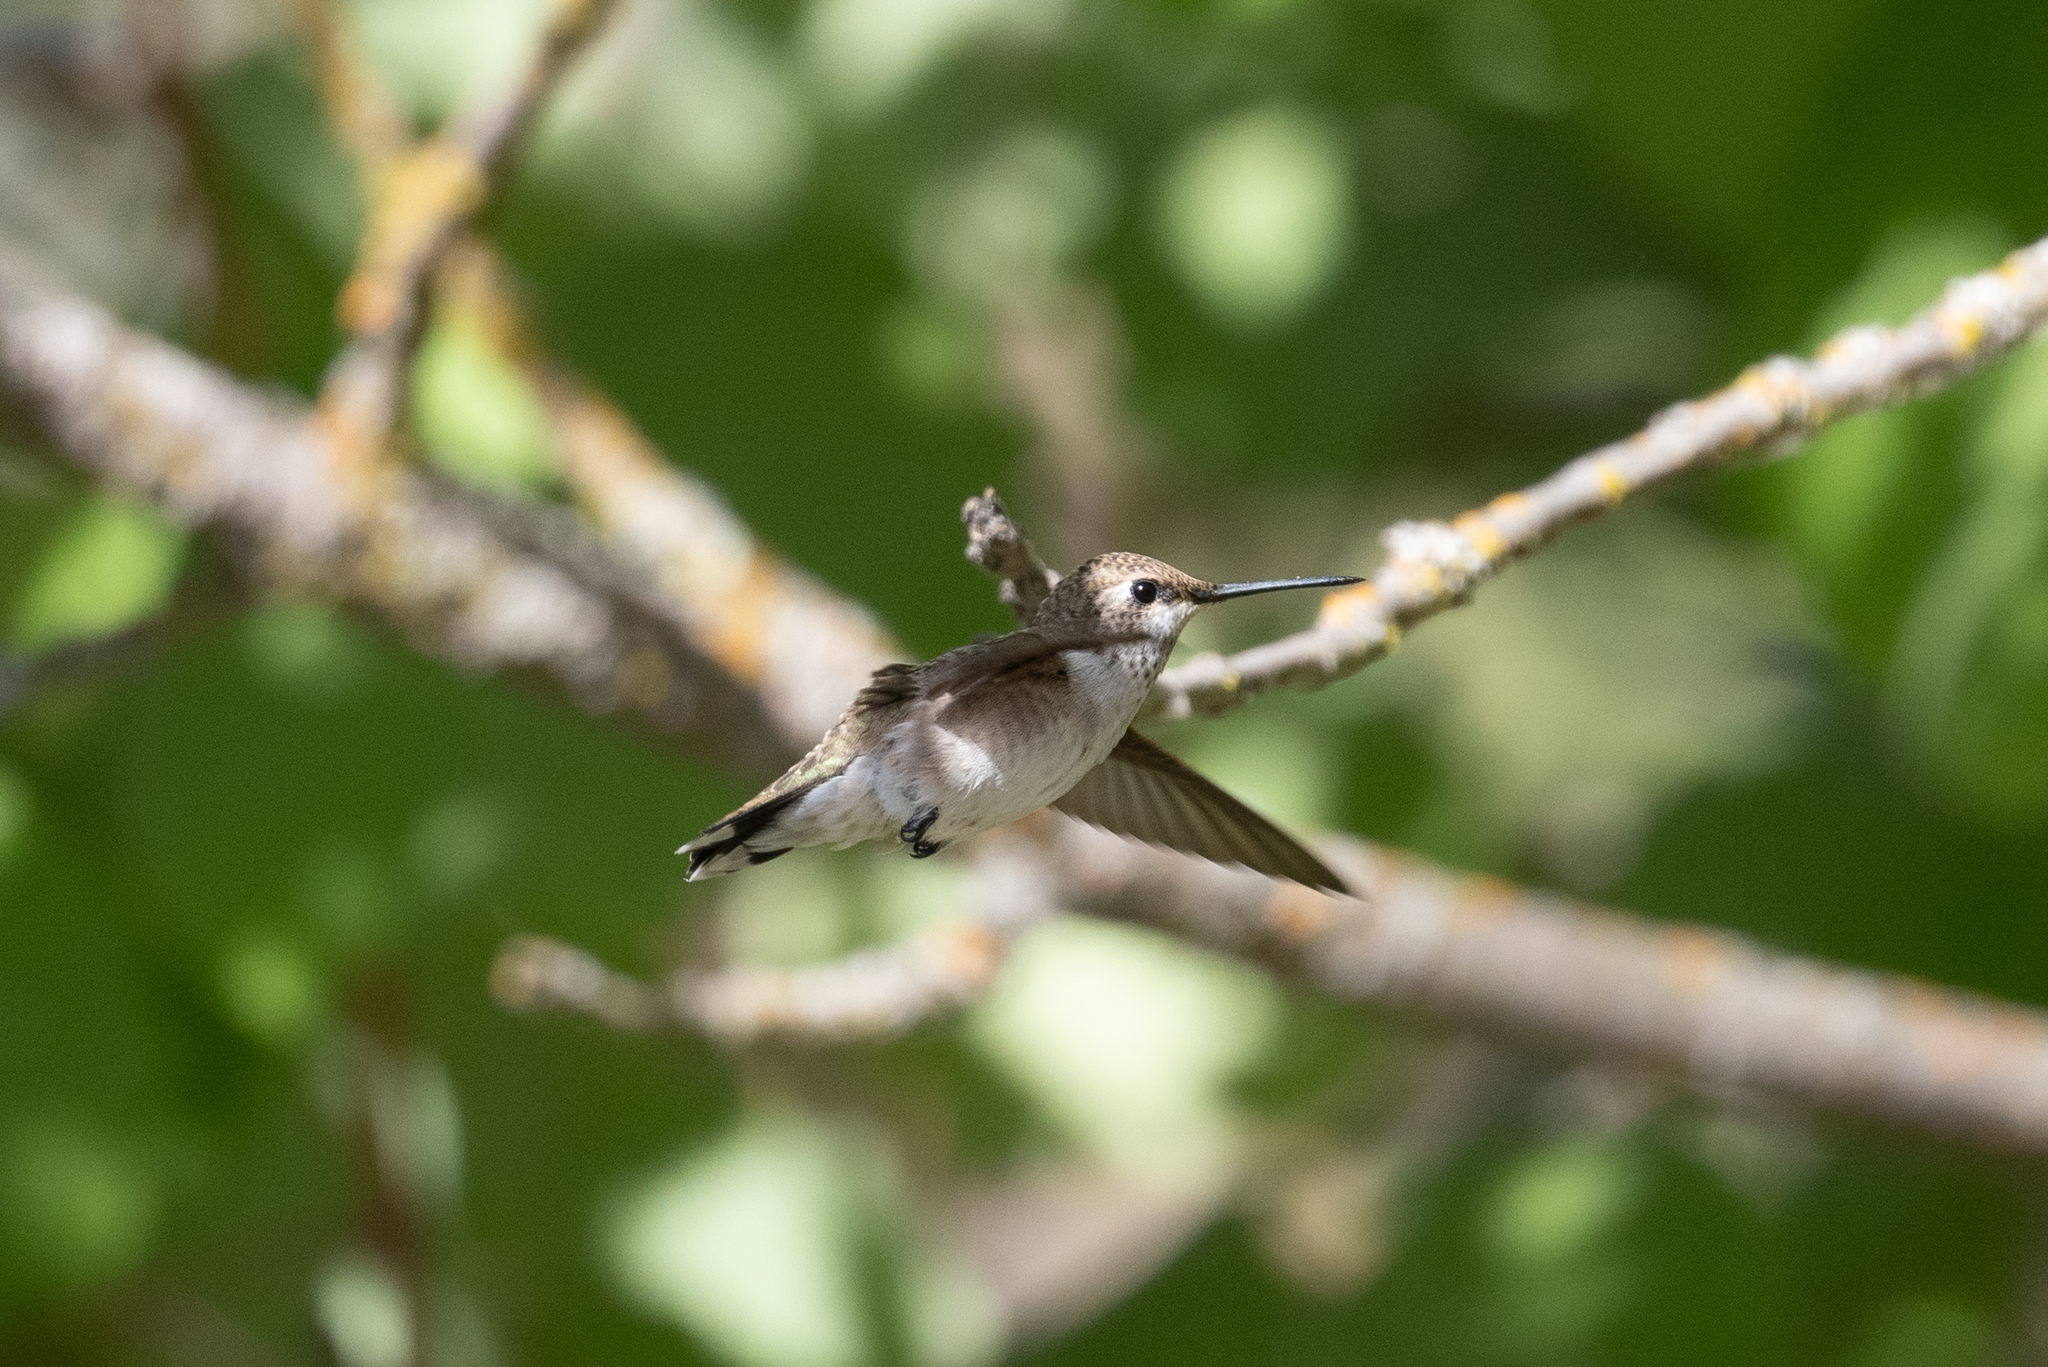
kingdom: Animalia
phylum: Chordata
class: Aves
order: Apodiformes
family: Trochilidae
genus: Archilochus
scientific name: Archilochus alexandri
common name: Black-chinned hummingbird
